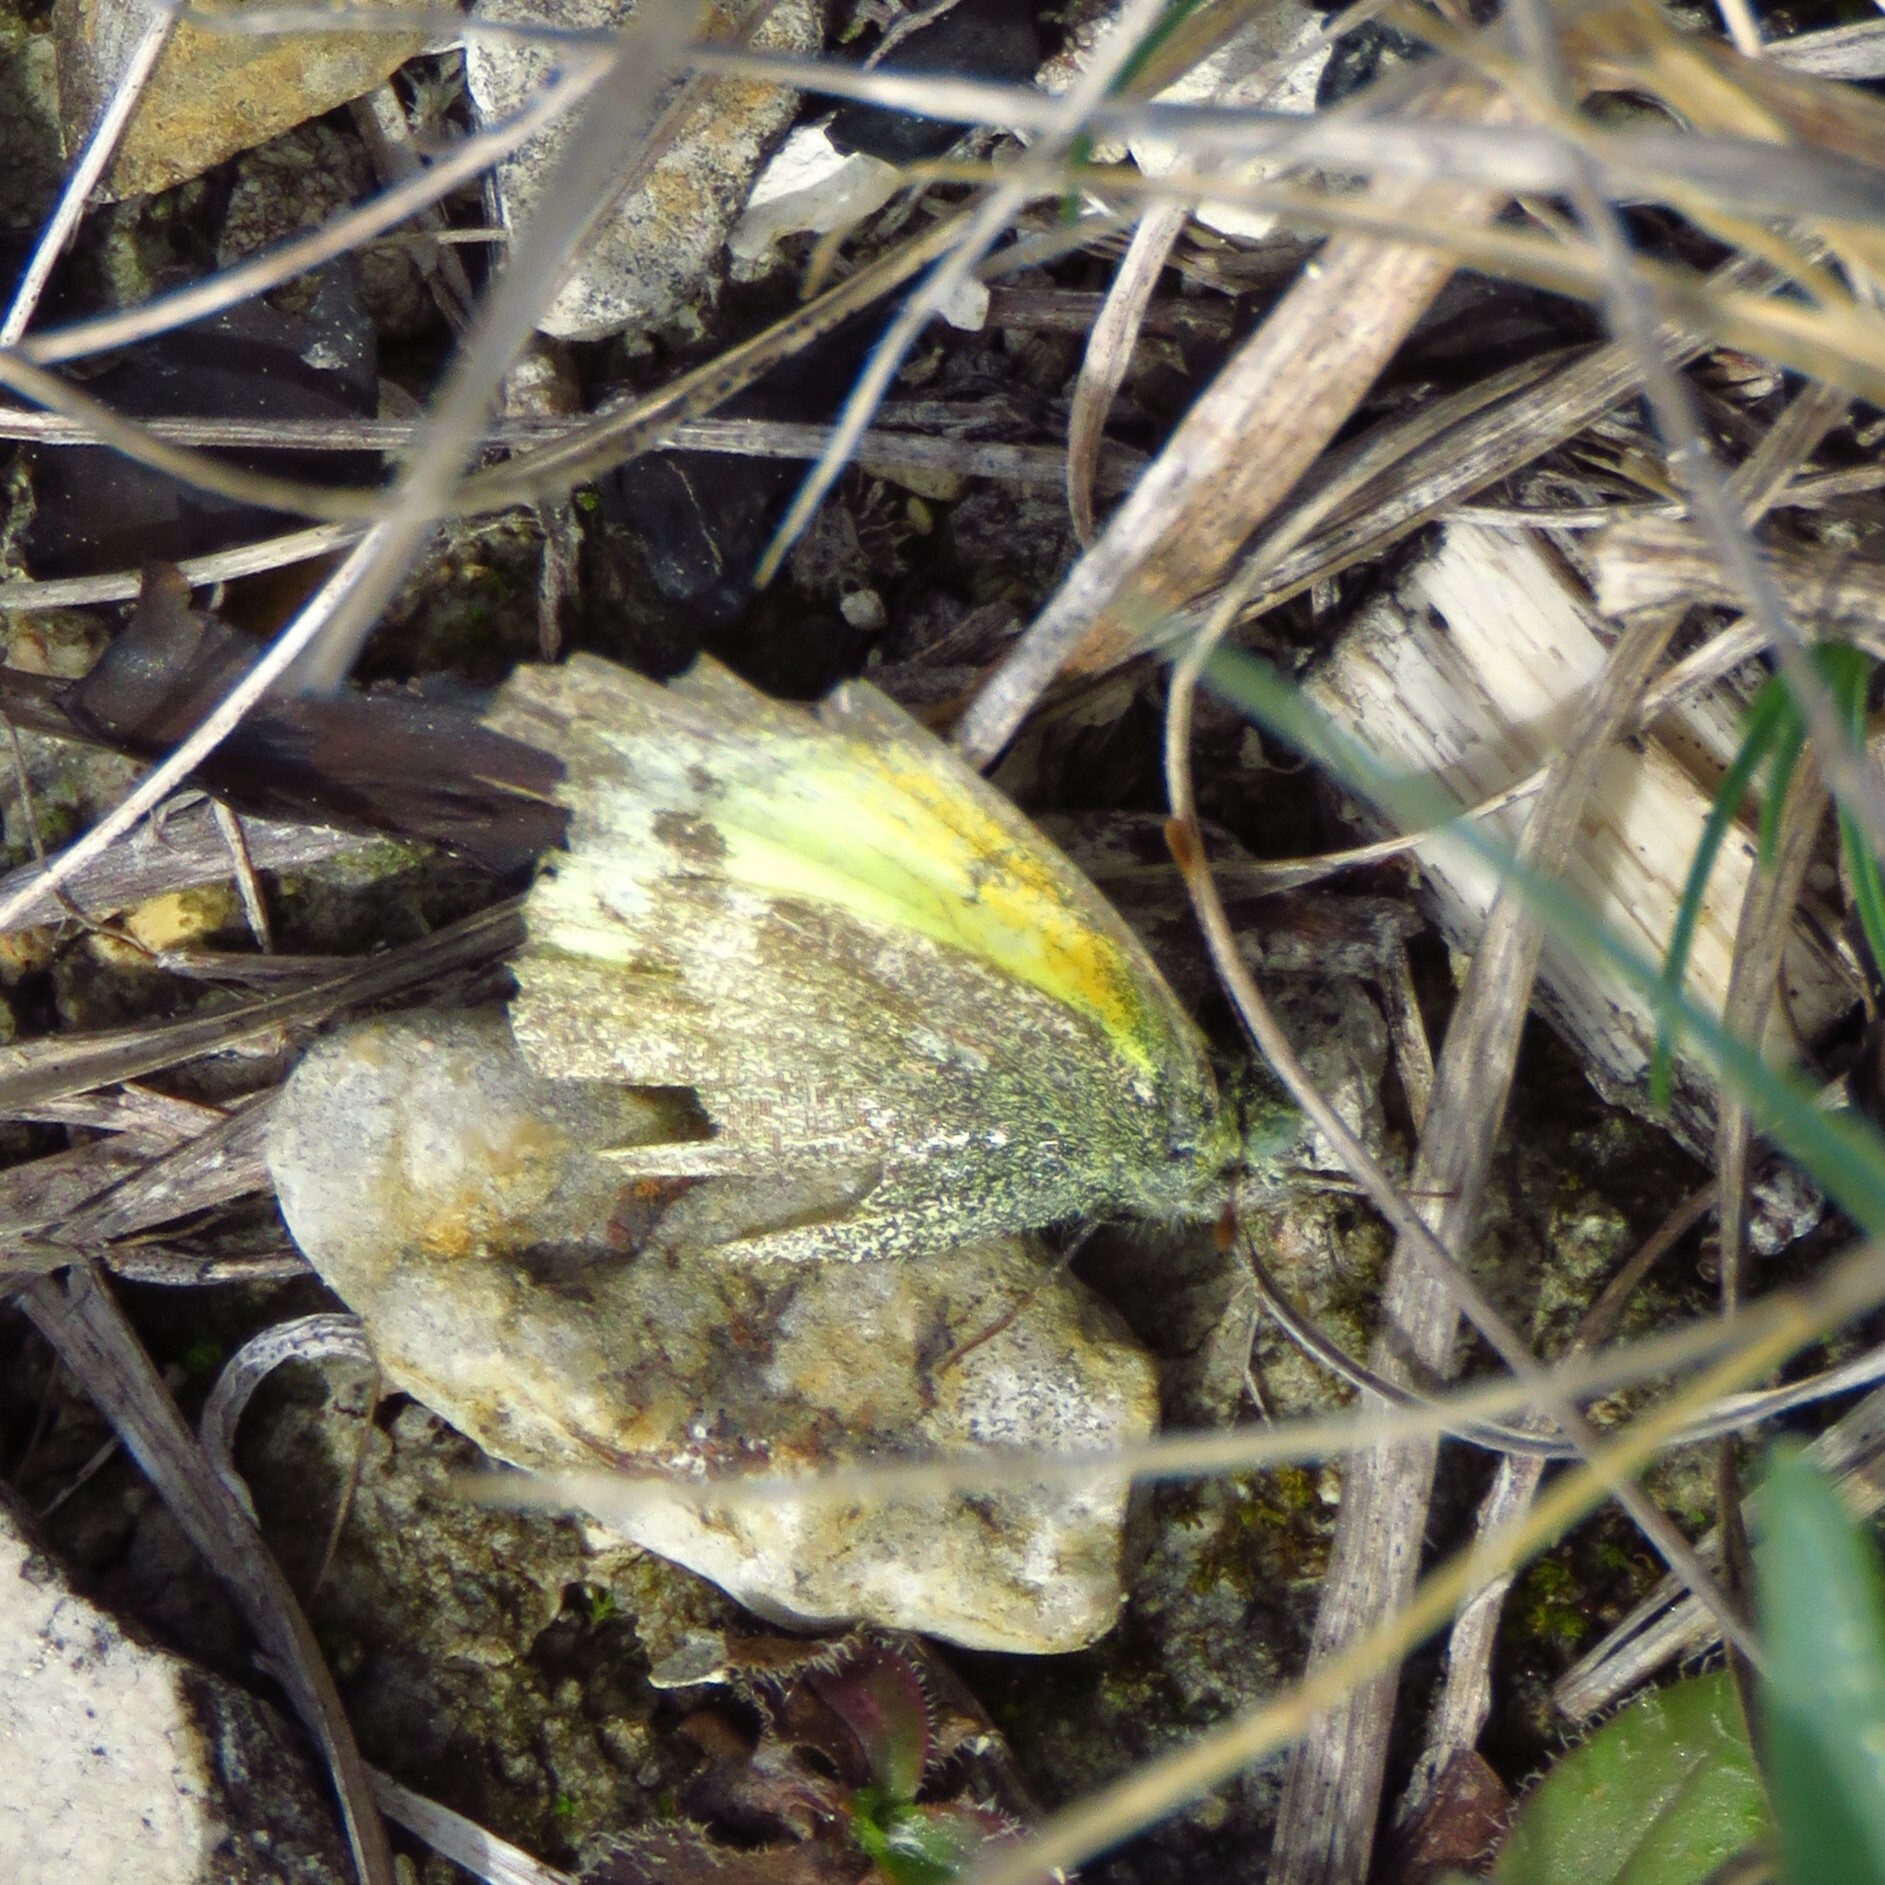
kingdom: Animalia
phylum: Arthropoda
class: Insecta
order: Lepidoptera
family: Pieridae
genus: Nathalis
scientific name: Nathalis iole
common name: Dainty sulphur
